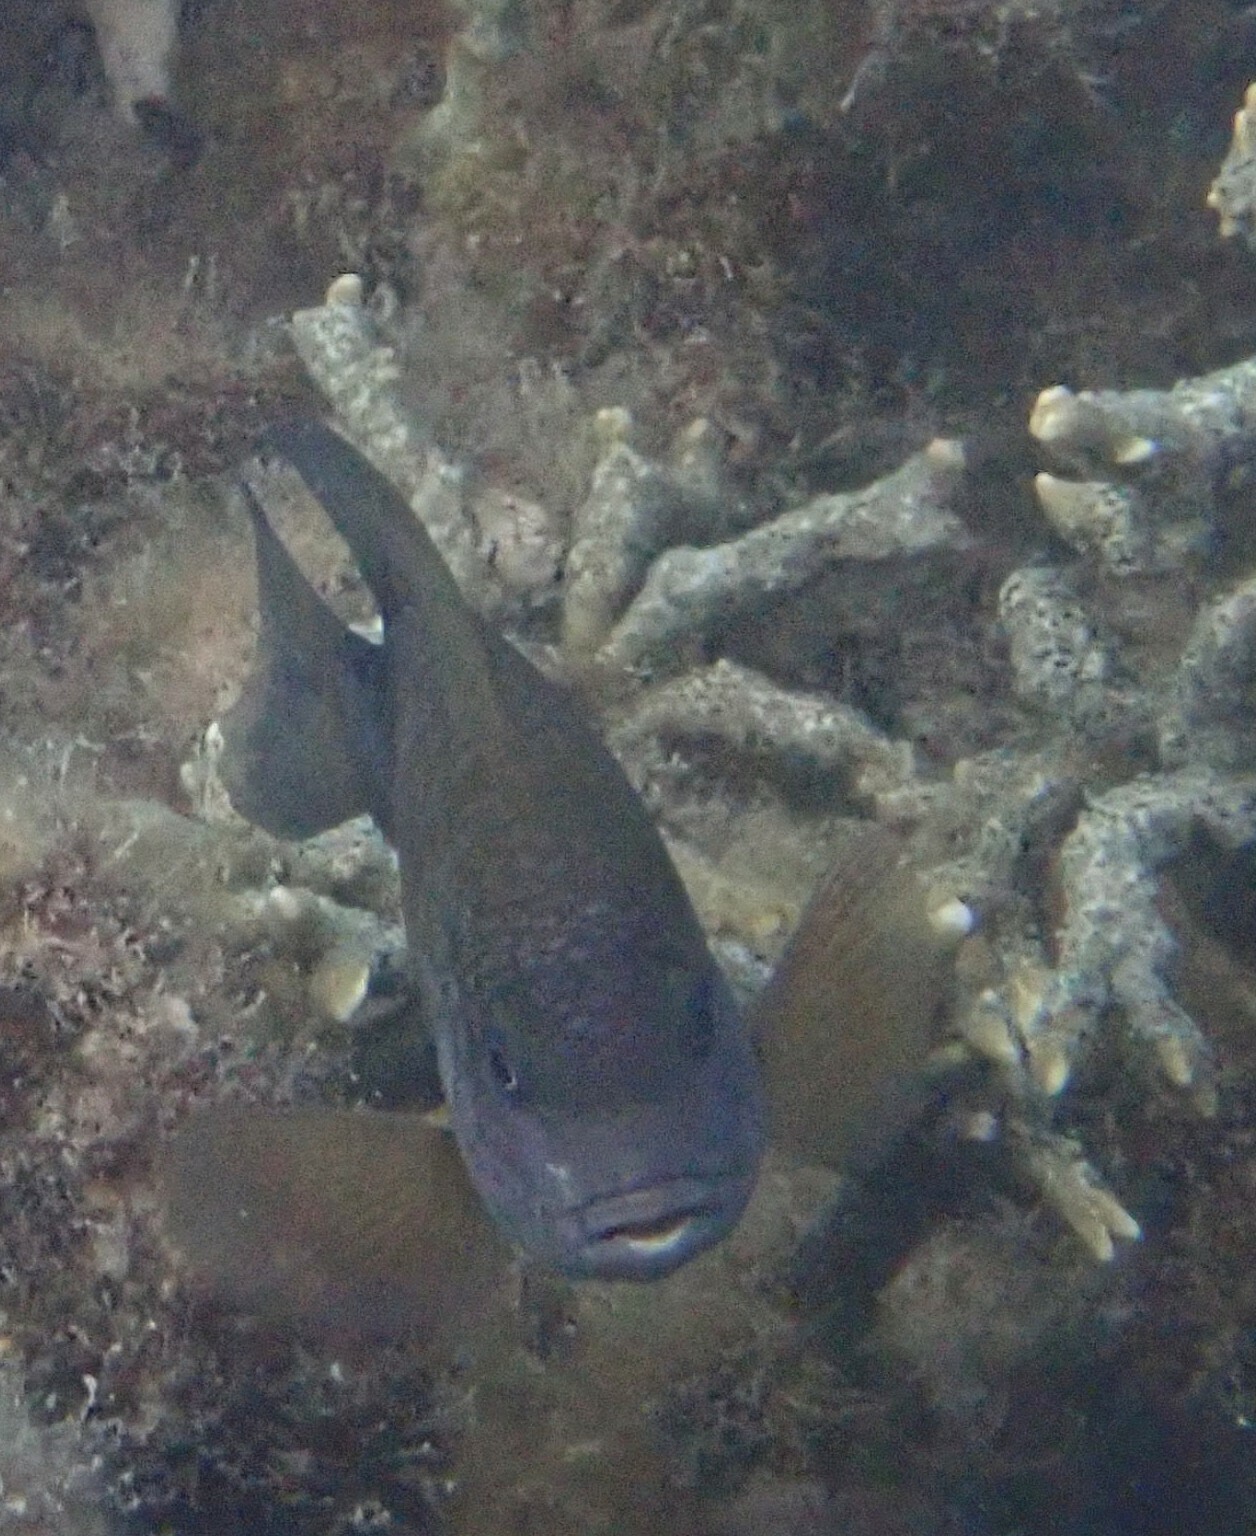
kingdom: Animalia
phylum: Chordata
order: Perciformes
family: Pomacentridae
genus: Stegastes
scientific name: Stegastes punctatus
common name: Blunt snout gregory
